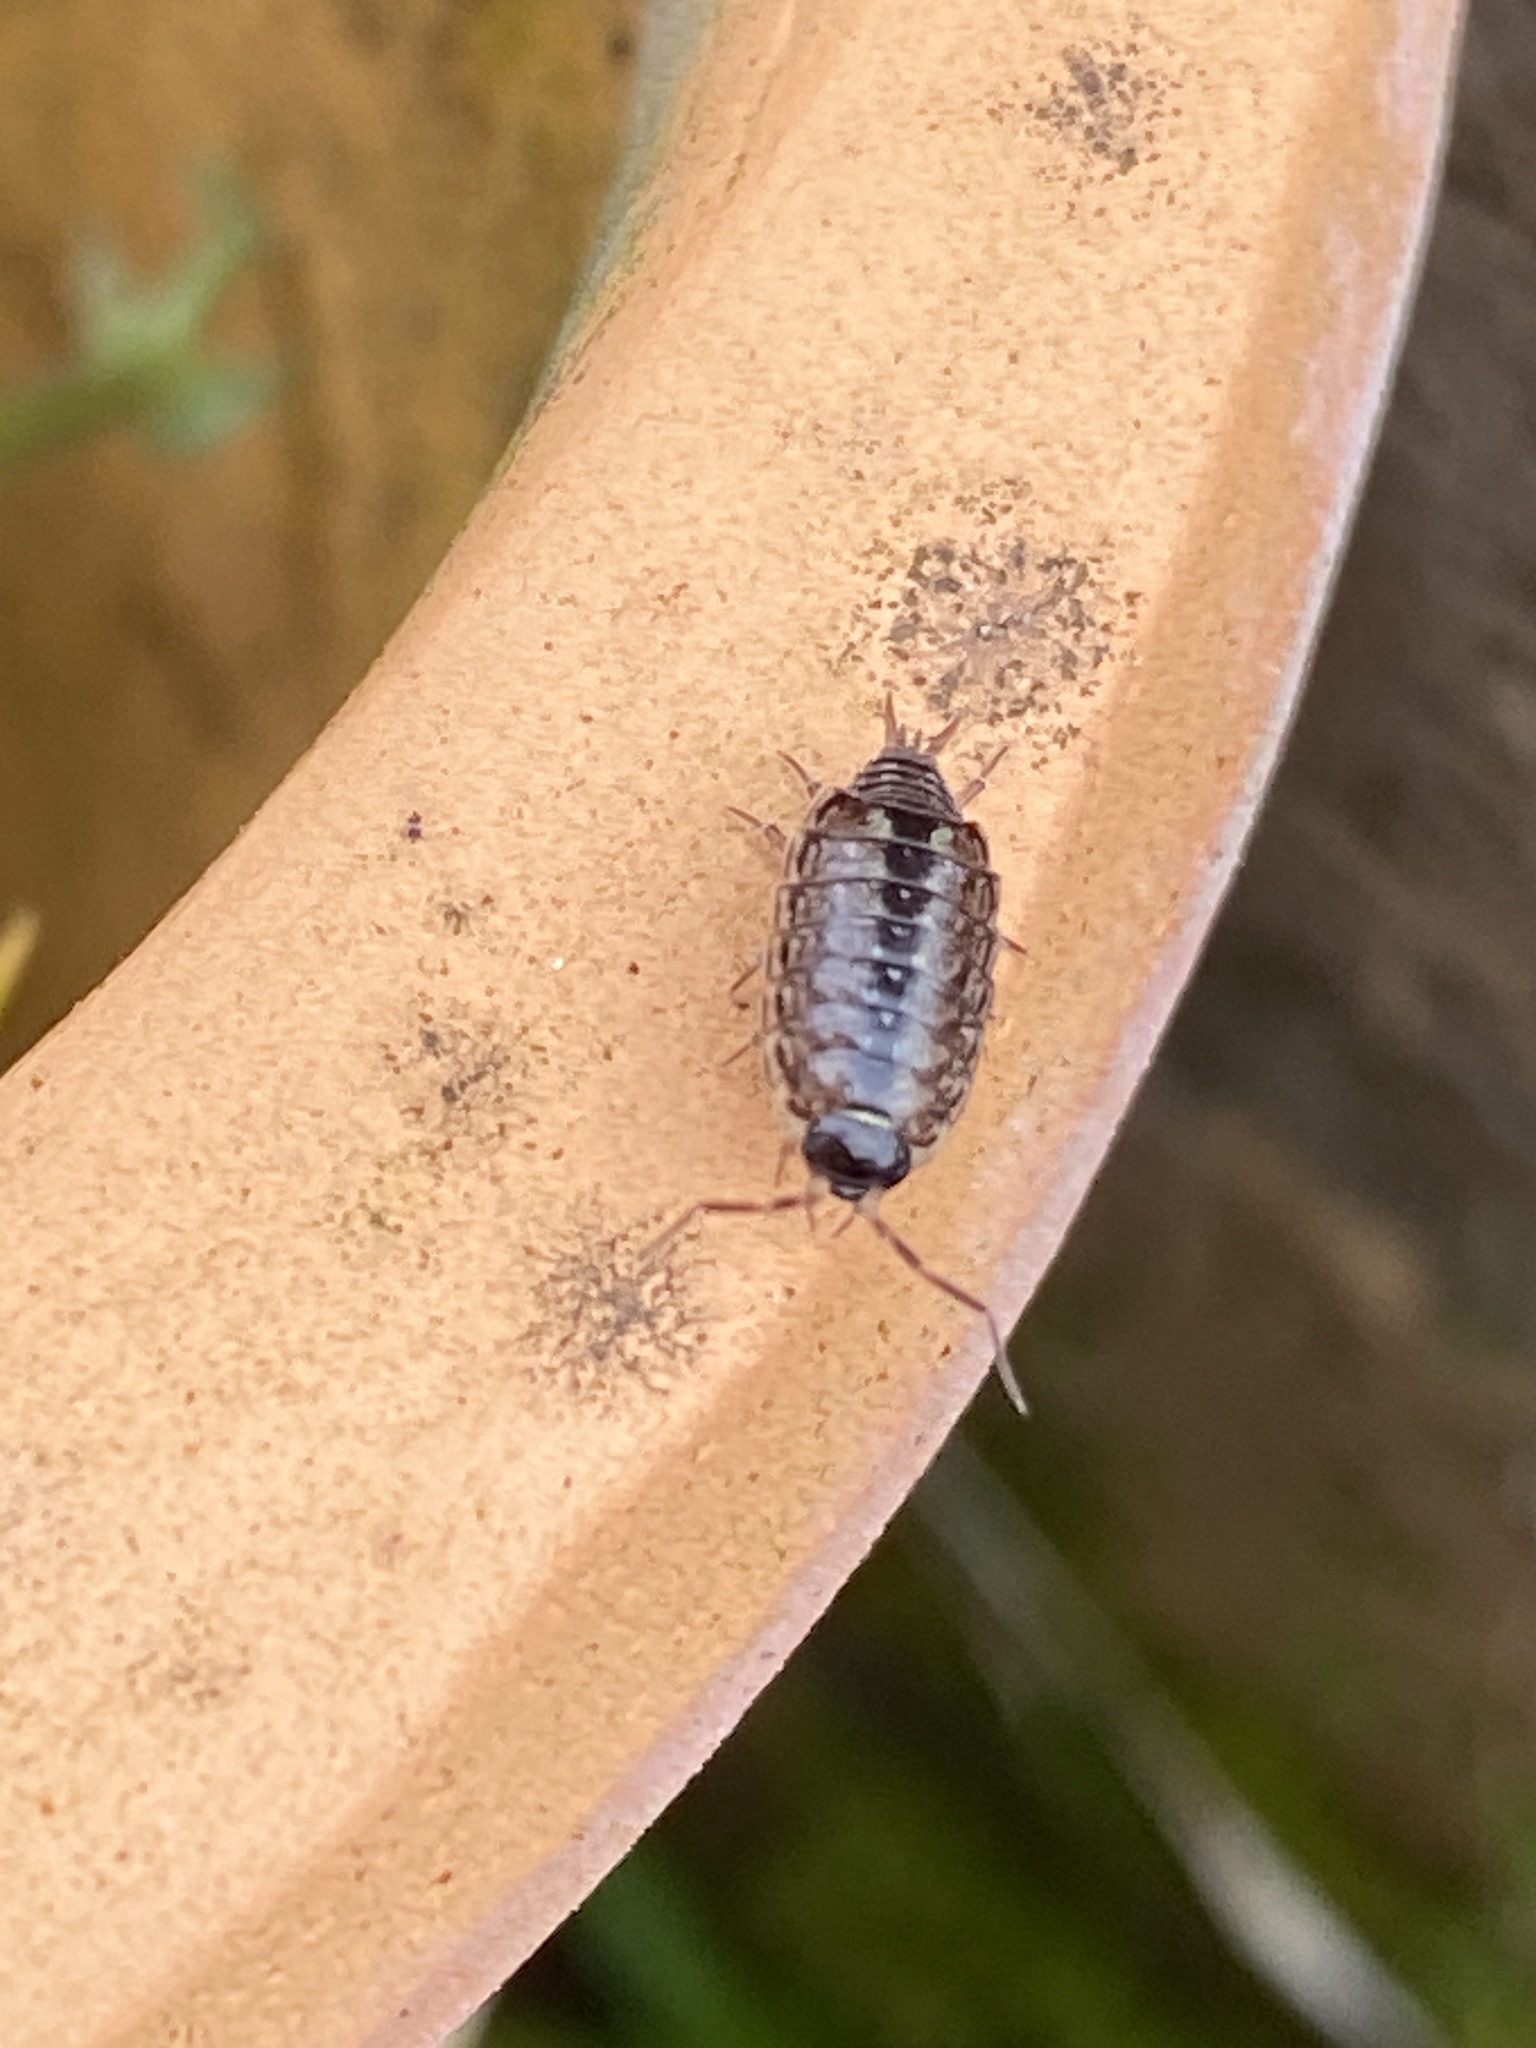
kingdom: Animalia
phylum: Arthropoda
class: Malacostraca
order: Isopoda
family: Philosciidae
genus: Philoscia
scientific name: Philoscia muscorum
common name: Common striped woodlouse
